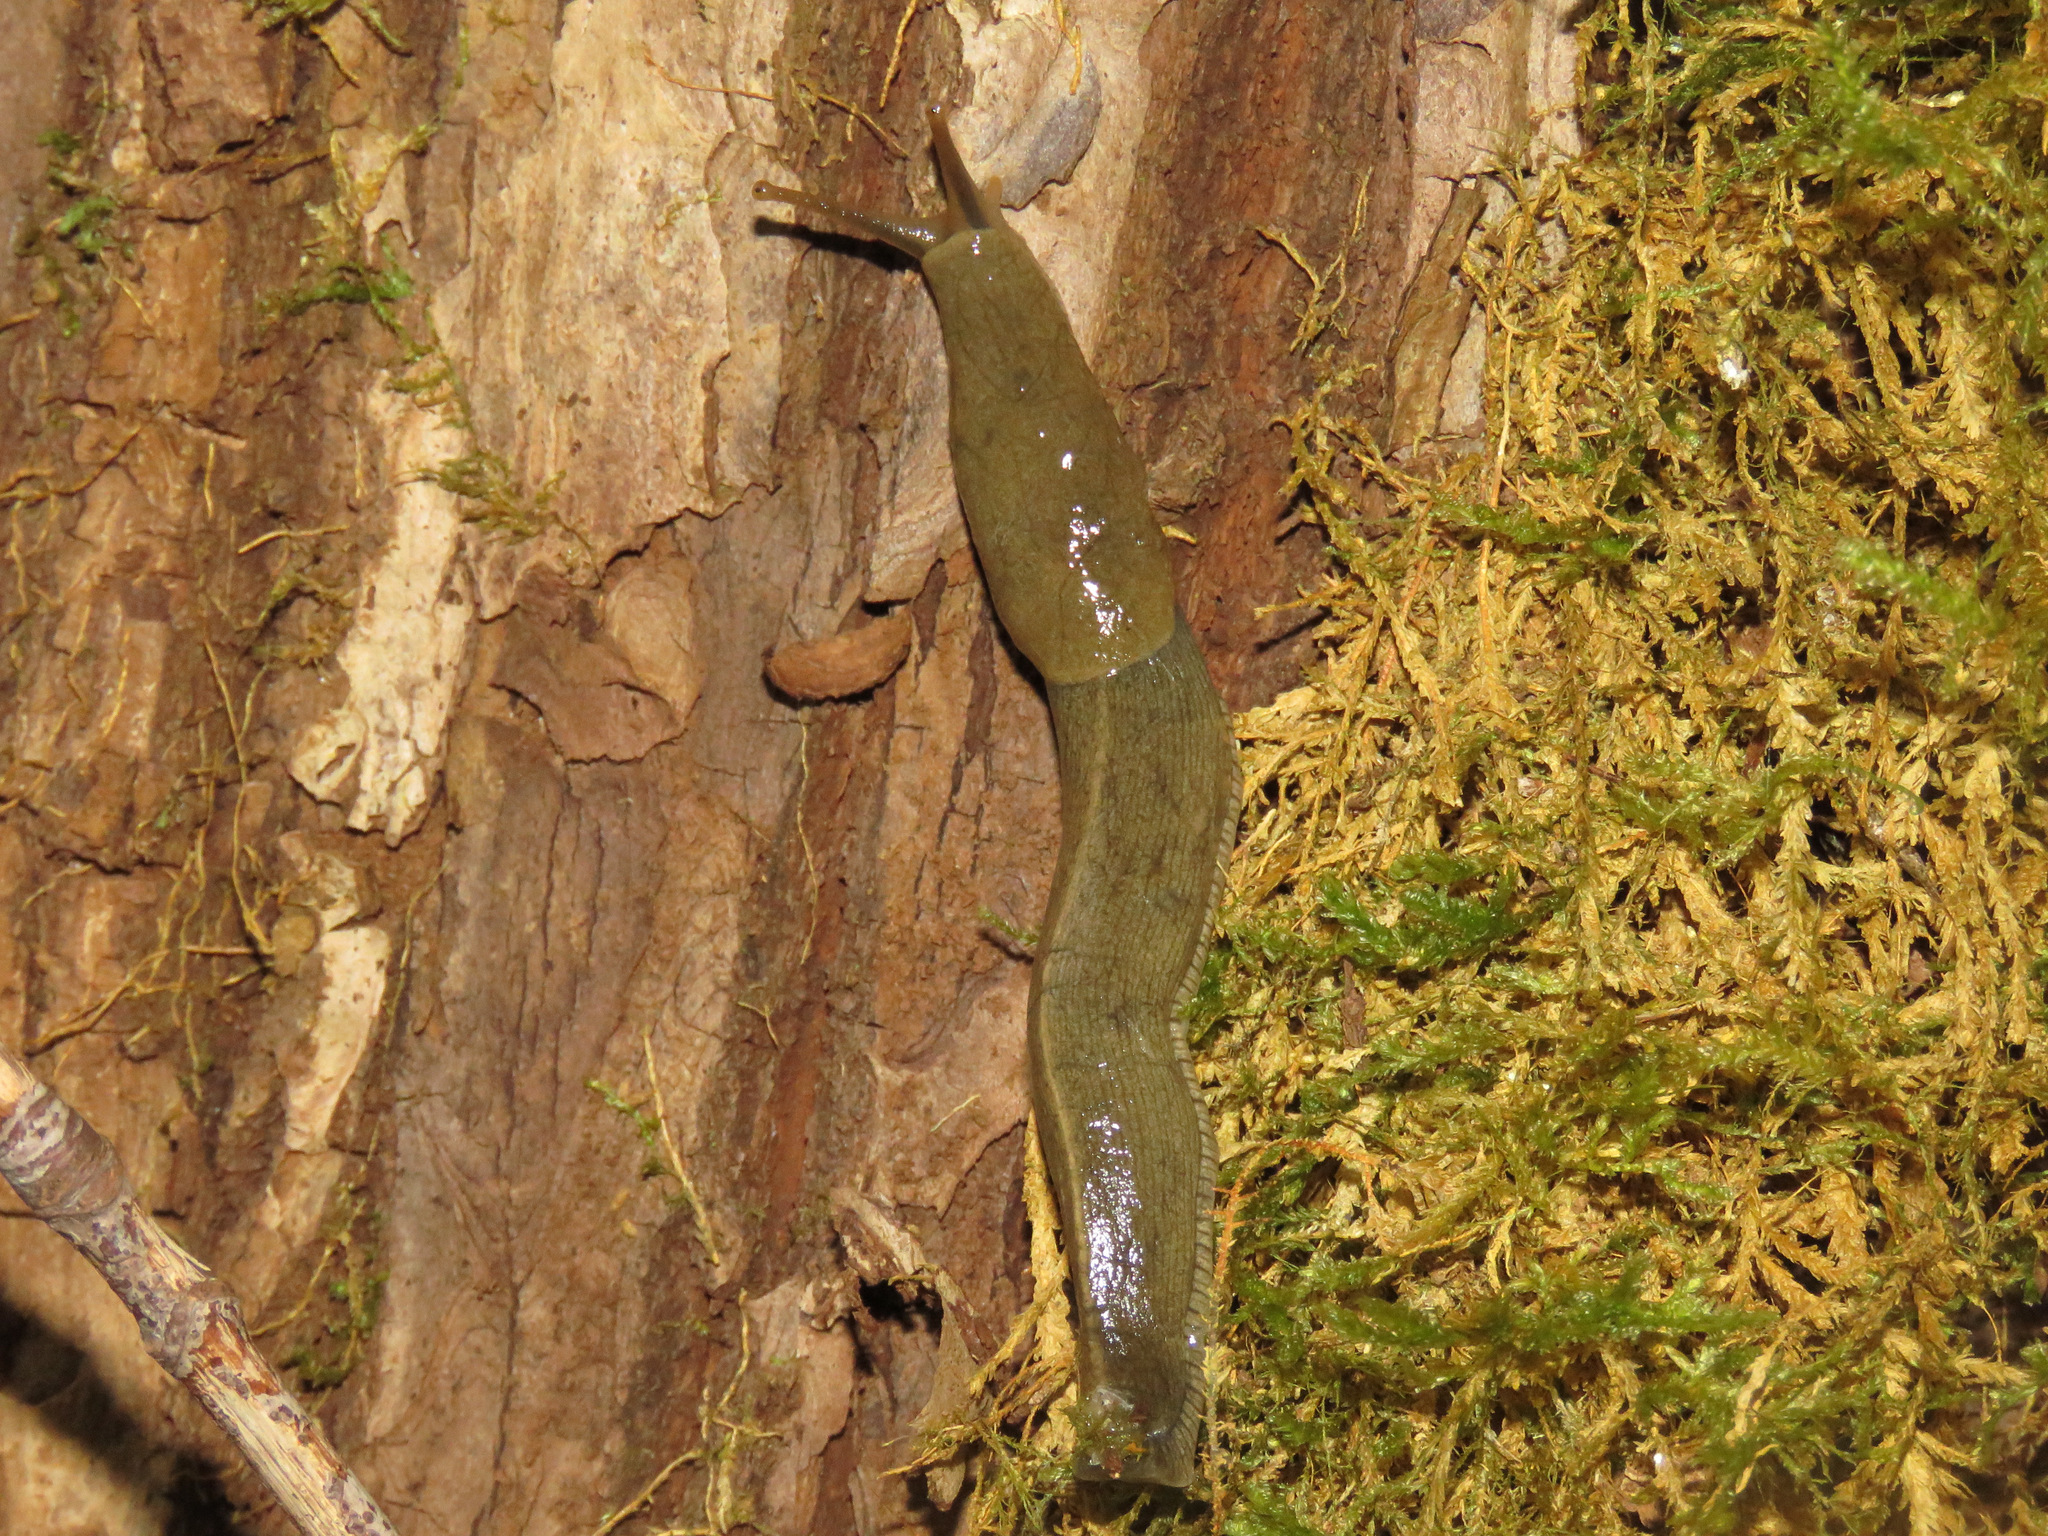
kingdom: Animalia
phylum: Mollusca
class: Gastropoda
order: Stylommatophora
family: Ariolimacidae
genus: Ariolimax
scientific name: Ariolimax columbianus
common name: Pacific banana slug
